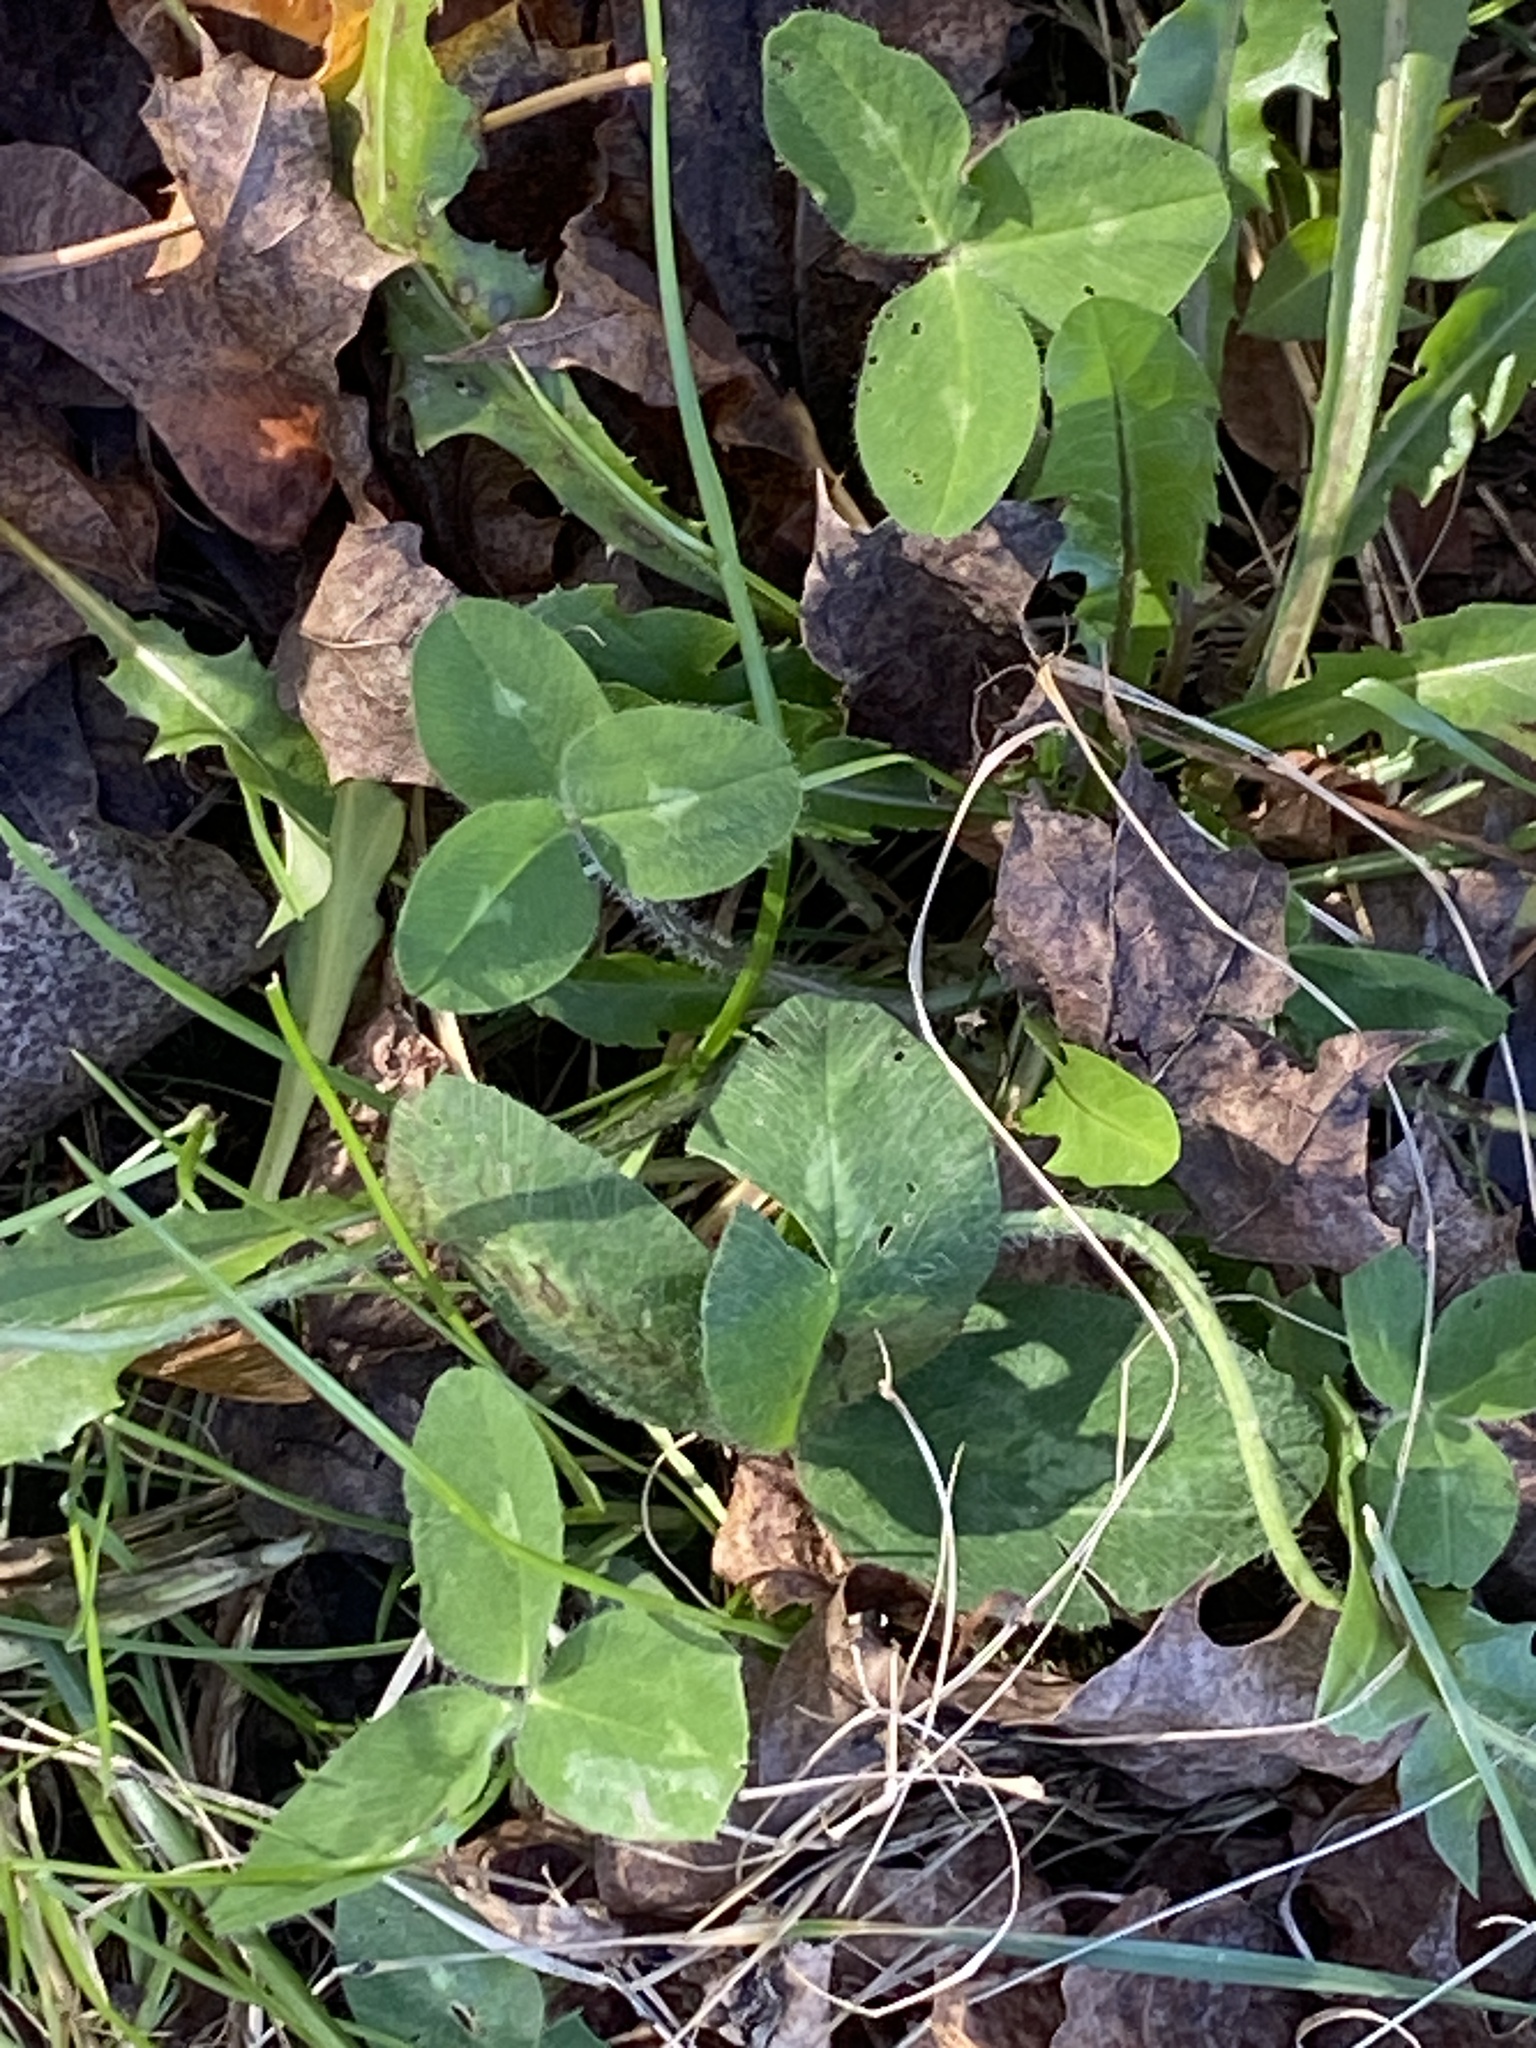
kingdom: Plantae
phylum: Tracheophyta
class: Magnoliopsida
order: Fabales
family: Fabaceae
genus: Trifolium
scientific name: Trifolium pratense
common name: Red clover
